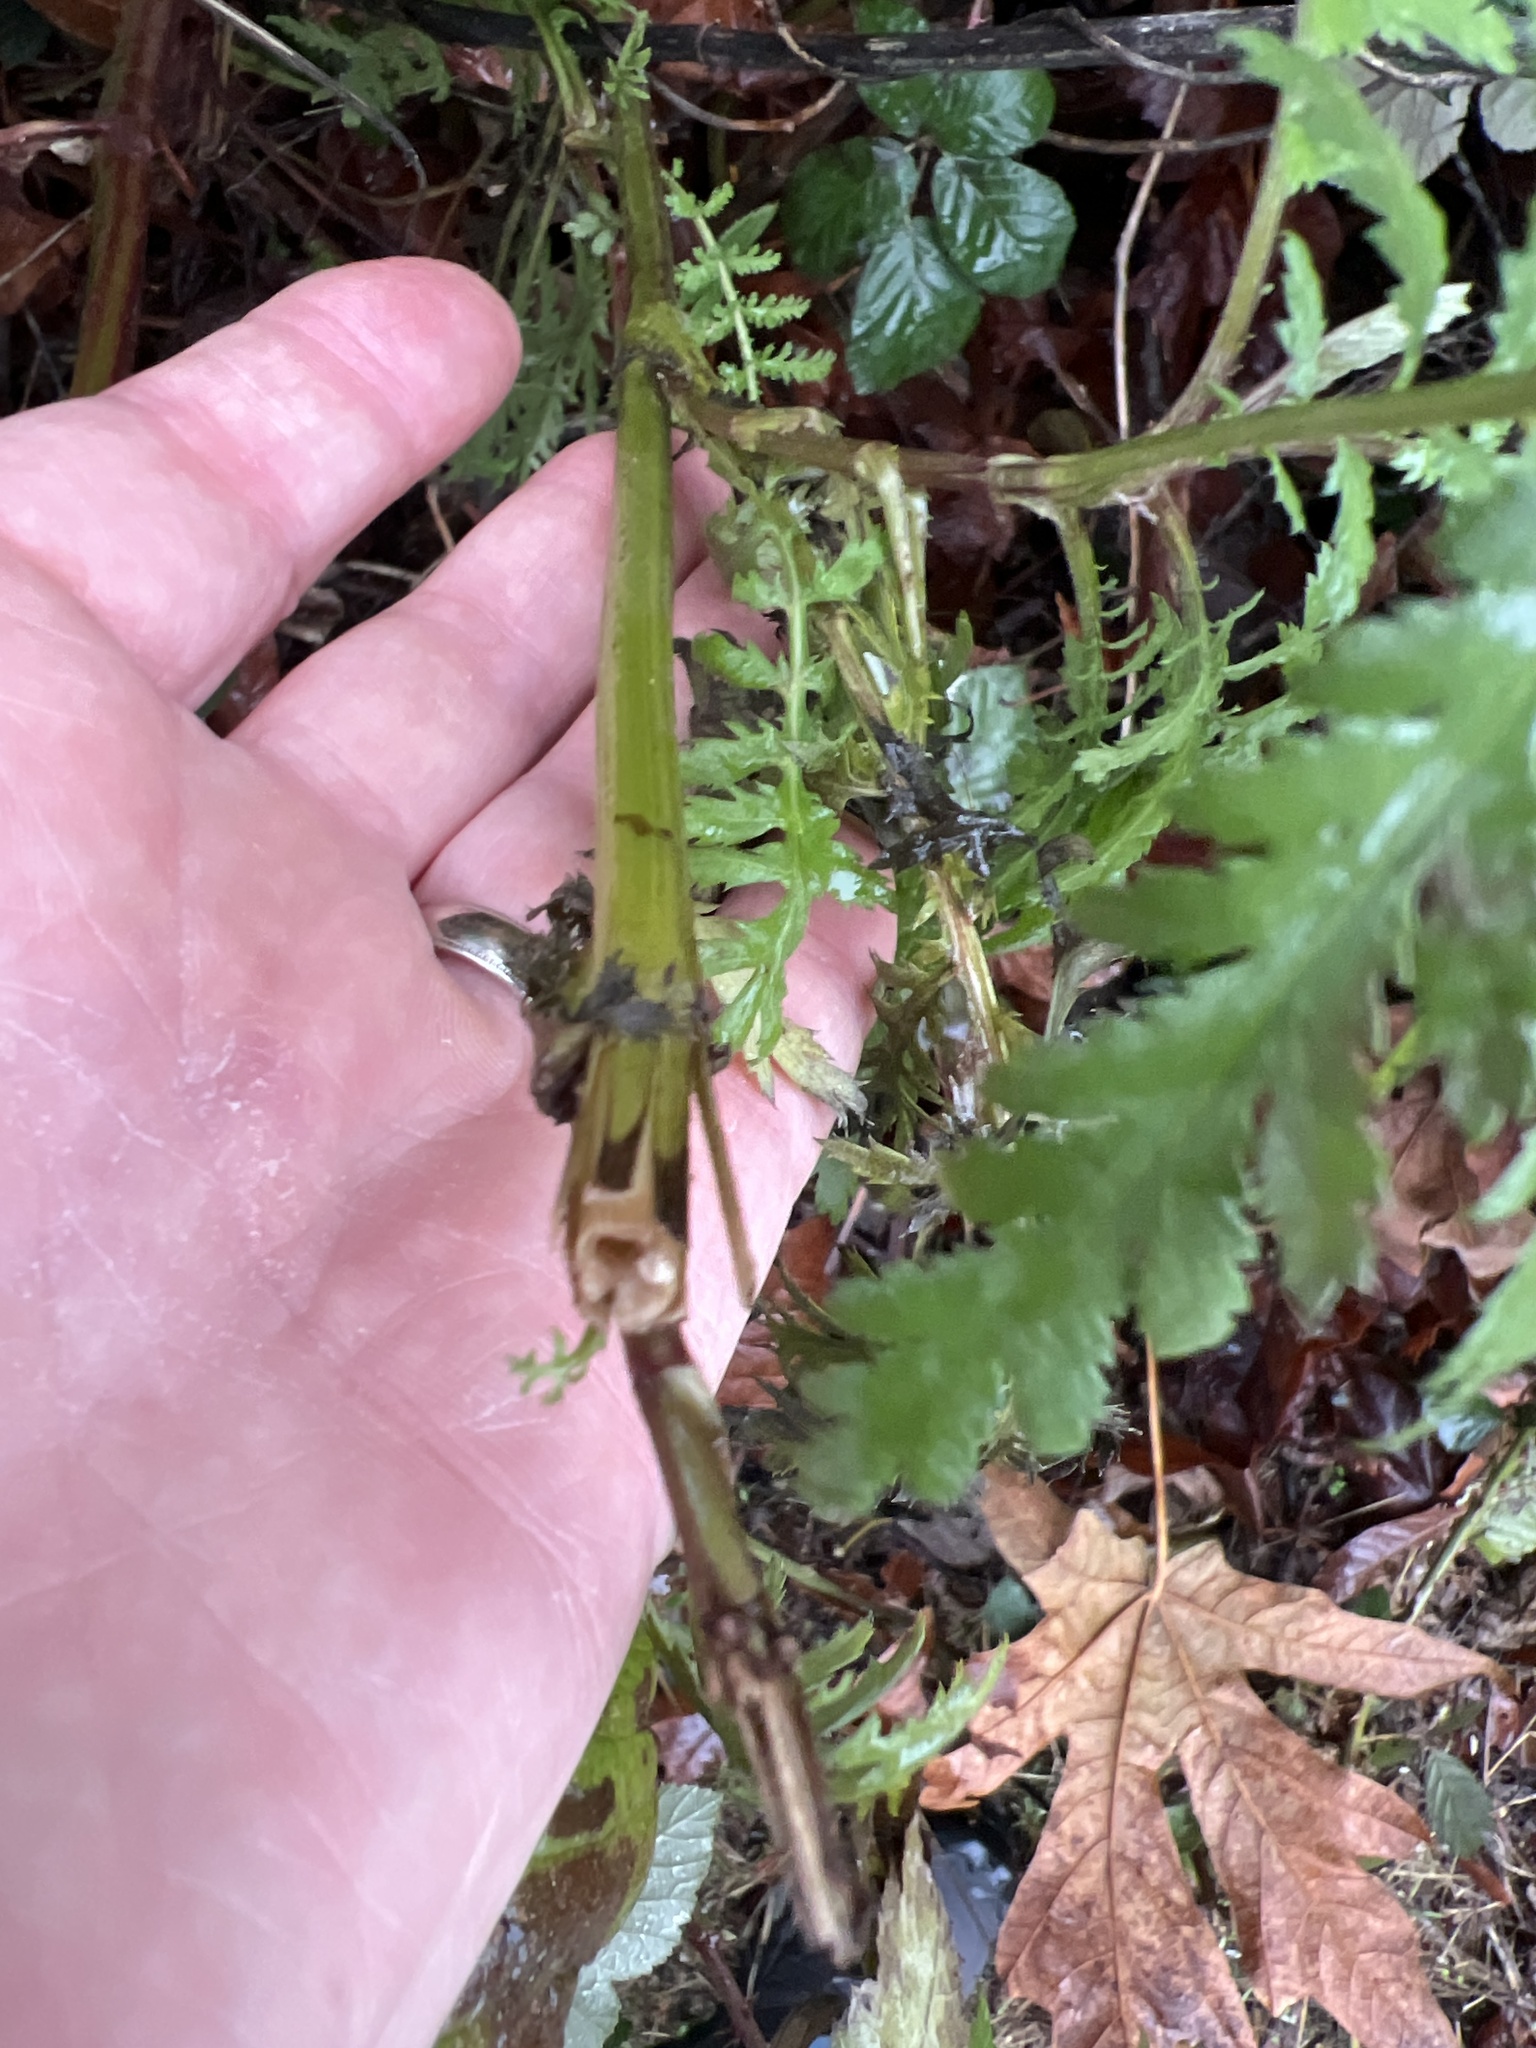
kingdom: Plantae
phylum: Tracheophyta
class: Magnoliopsida
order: Asterales
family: Asteraceae
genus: Tanacetum
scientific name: Tanacetum vulgare
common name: Common tansy
